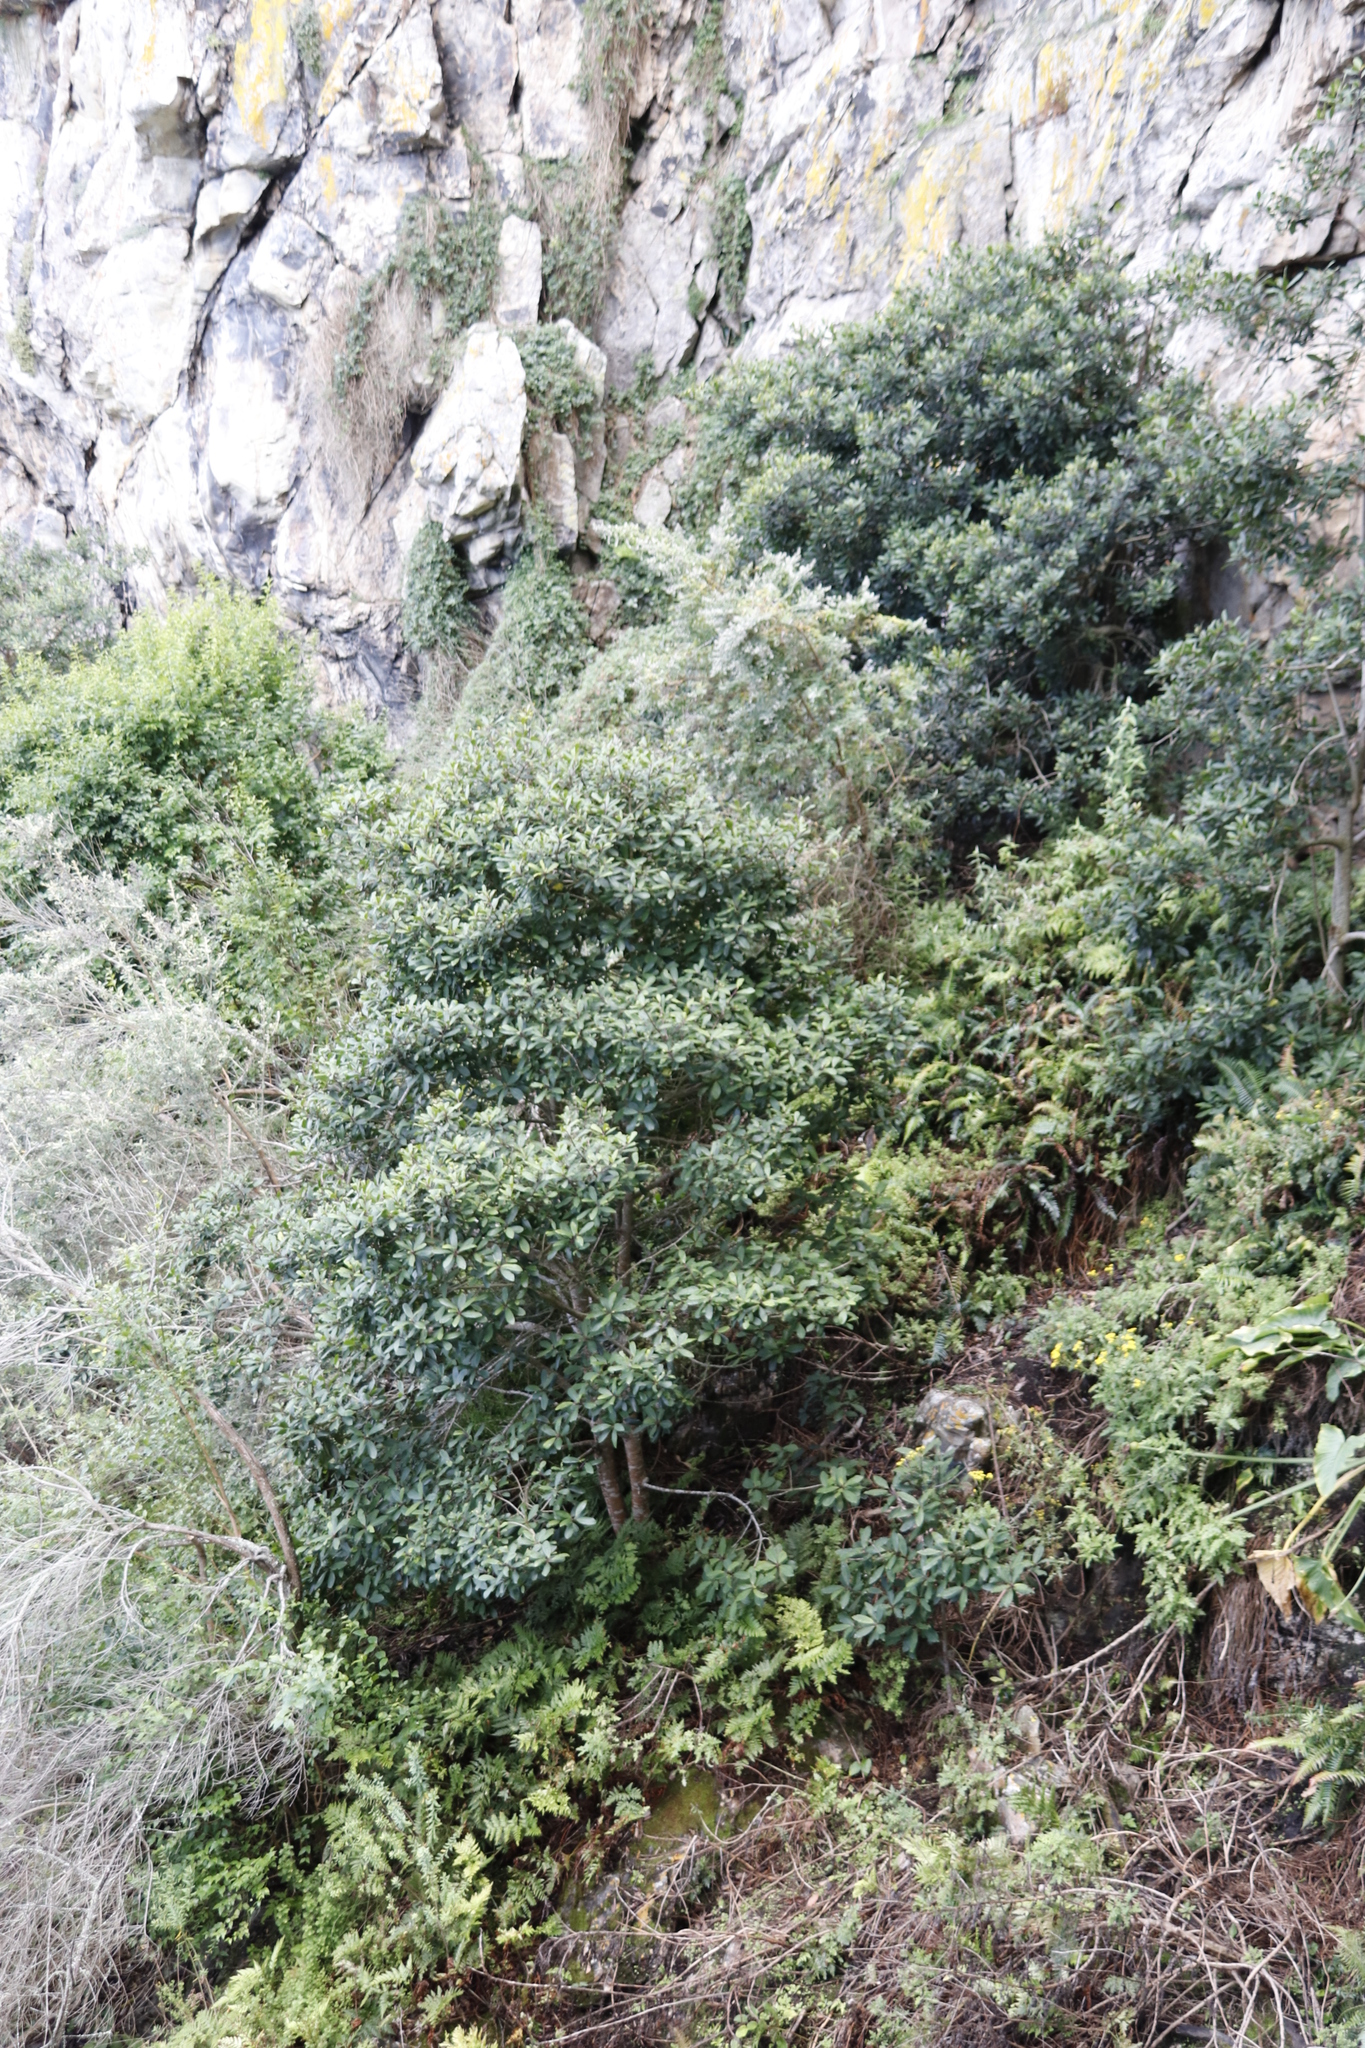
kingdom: Plantae
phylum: Tracheophyta
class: Magnoliopsida
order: Ericales
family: Primulaceae
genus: Myrsine
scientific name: Myrsine melanophloeos
